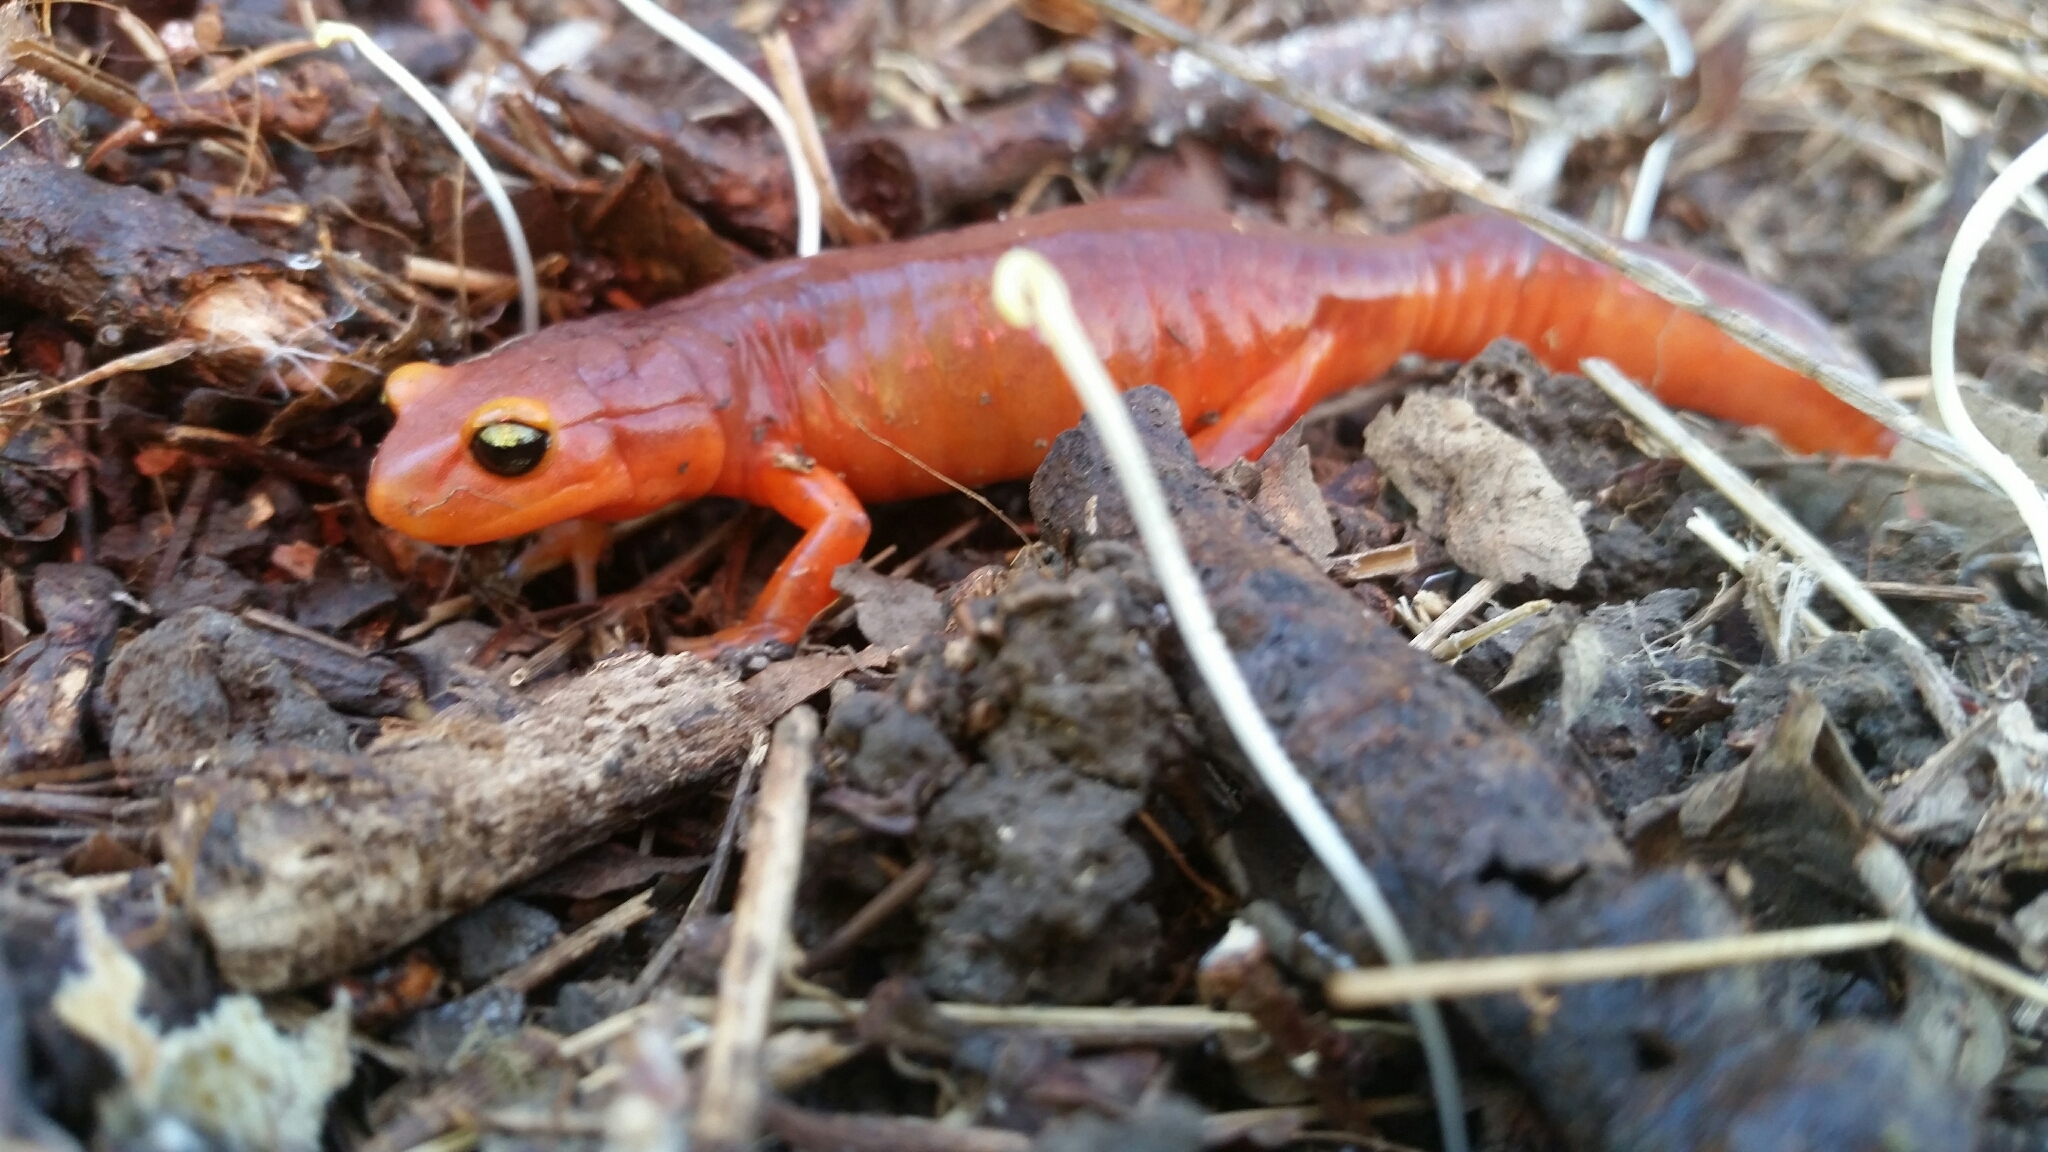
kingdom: Animalia
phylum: Chordata
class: Amphibia
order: Caudata
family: Plethodontidae
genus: Ensatina
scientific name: Ensatina eschscholtzii
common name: Ensatina
